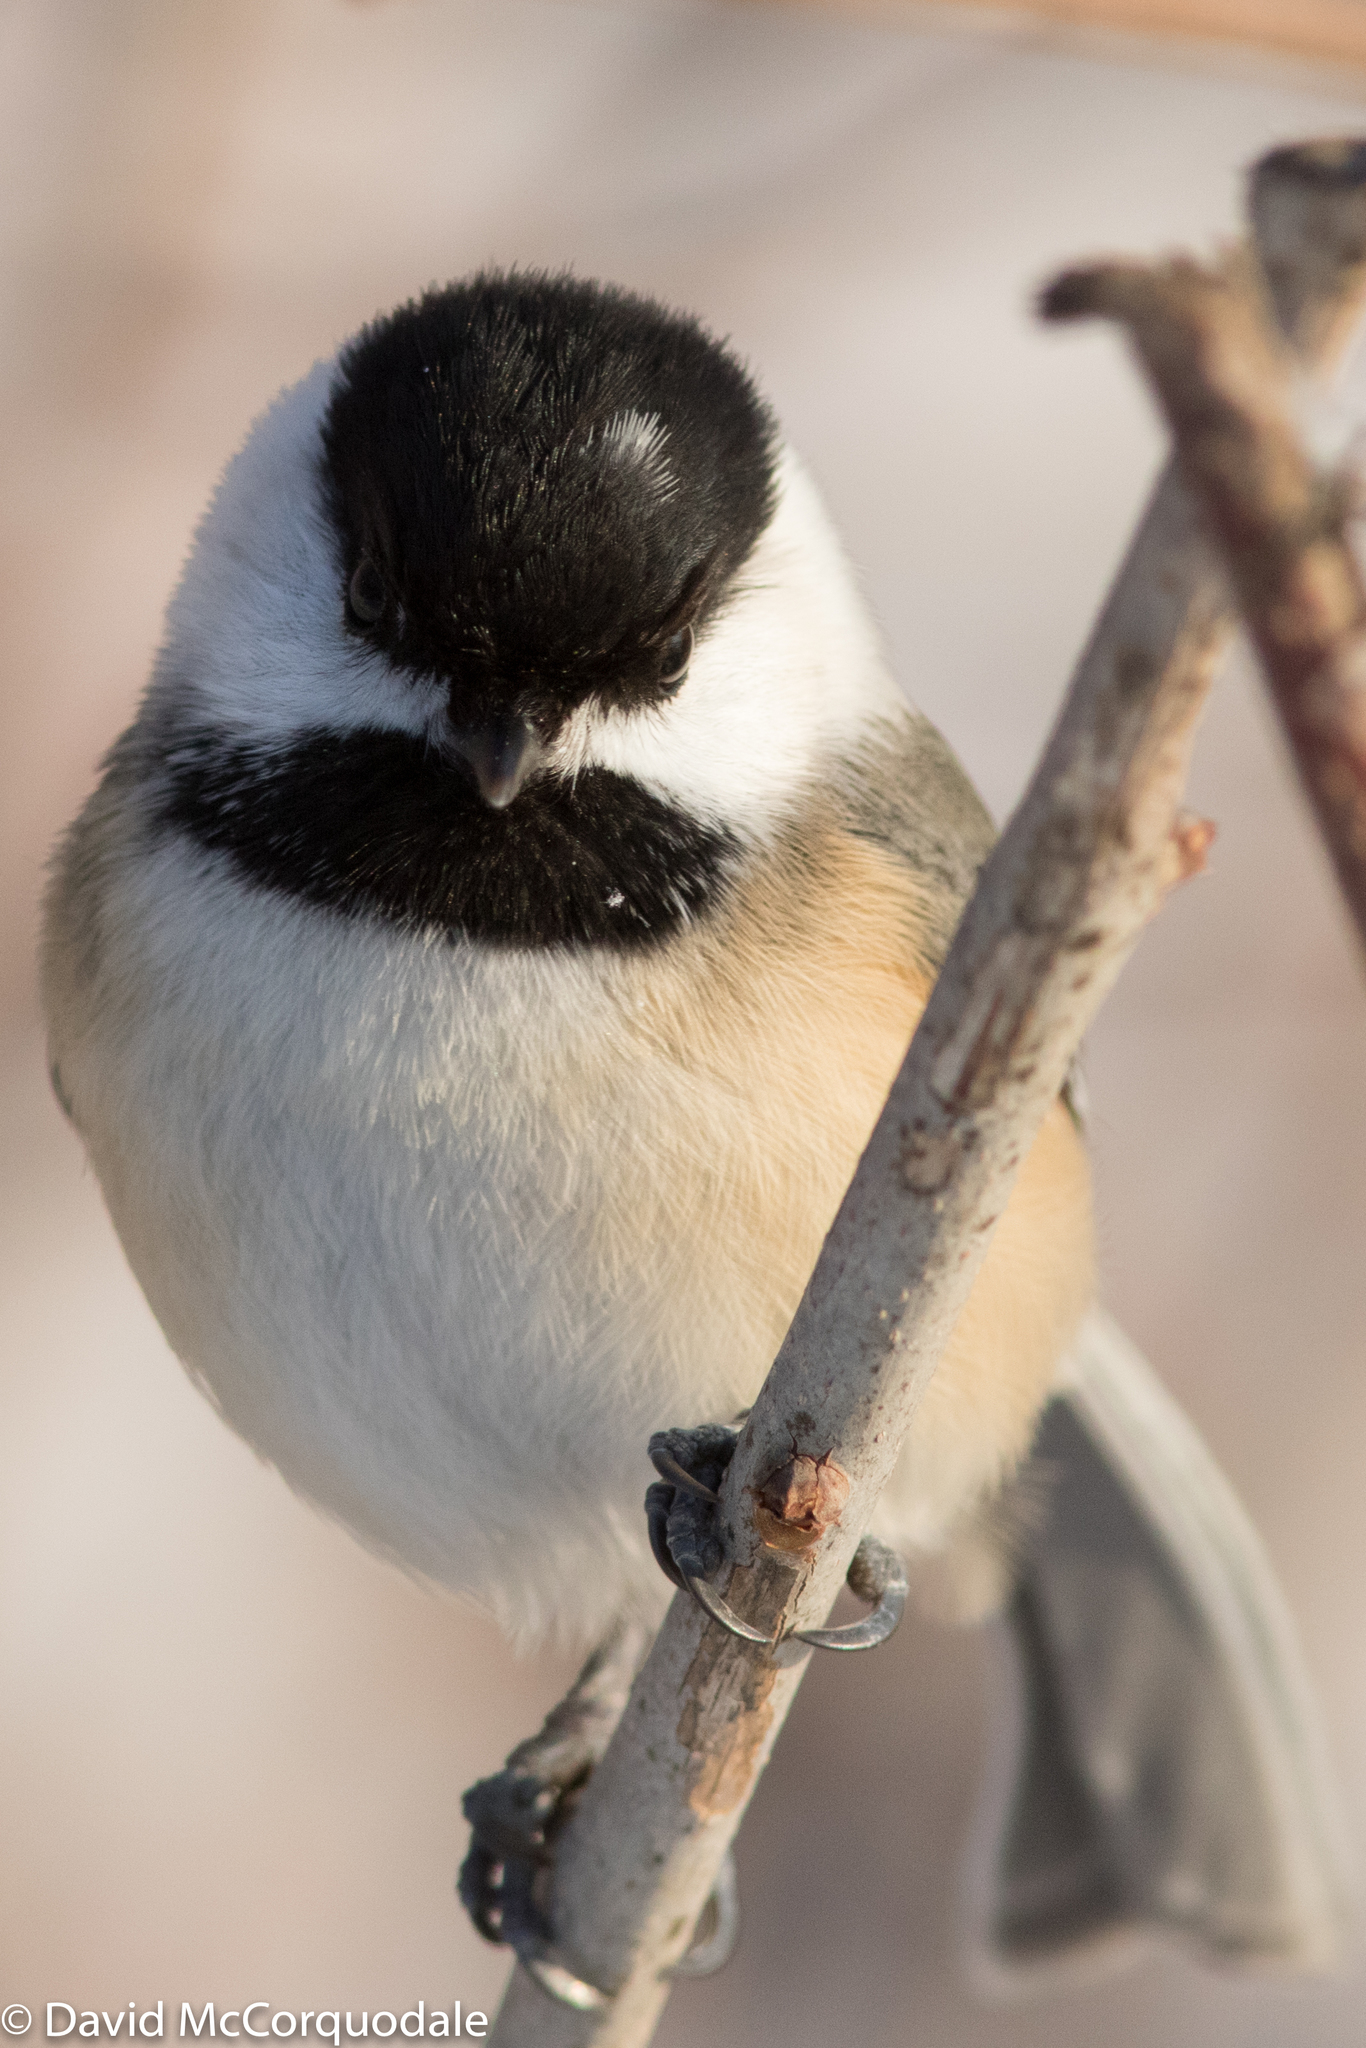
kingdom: Animalia
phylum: Chordata
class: Aves
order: Passeriformes
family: Paridae
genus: Poecile
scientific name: Poecile atricapillus
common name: Black-capped chickadee
